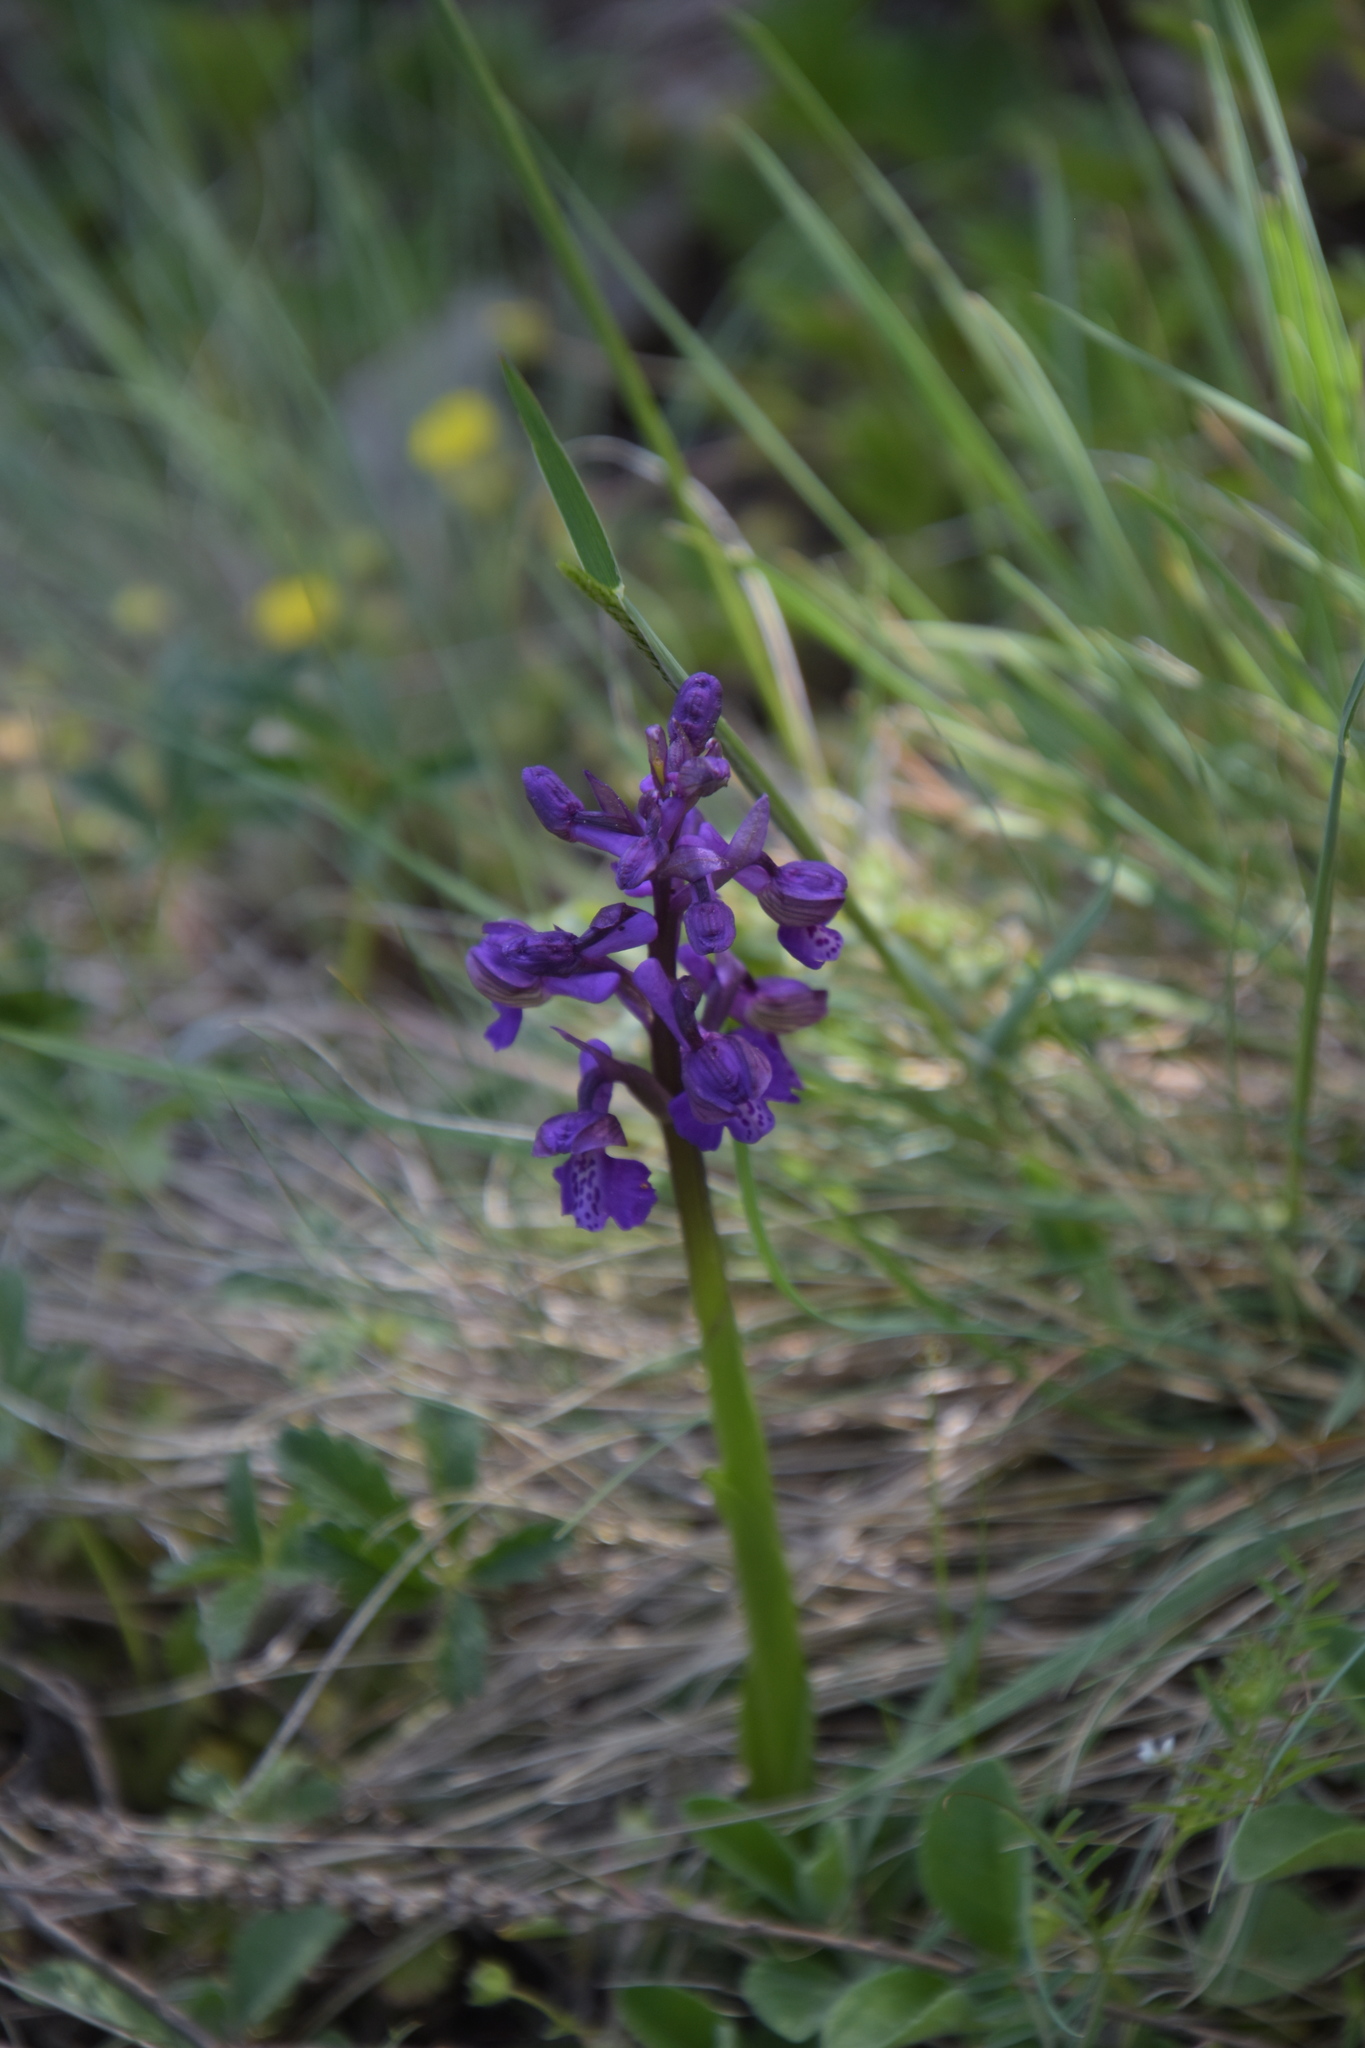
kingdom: Plantae
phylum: Tracheophyta
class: Liliopsida
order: Asparagales
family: Orchidaceae
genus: Anacamptis
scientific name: Anacamptis morio
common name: Green-winged orchid
